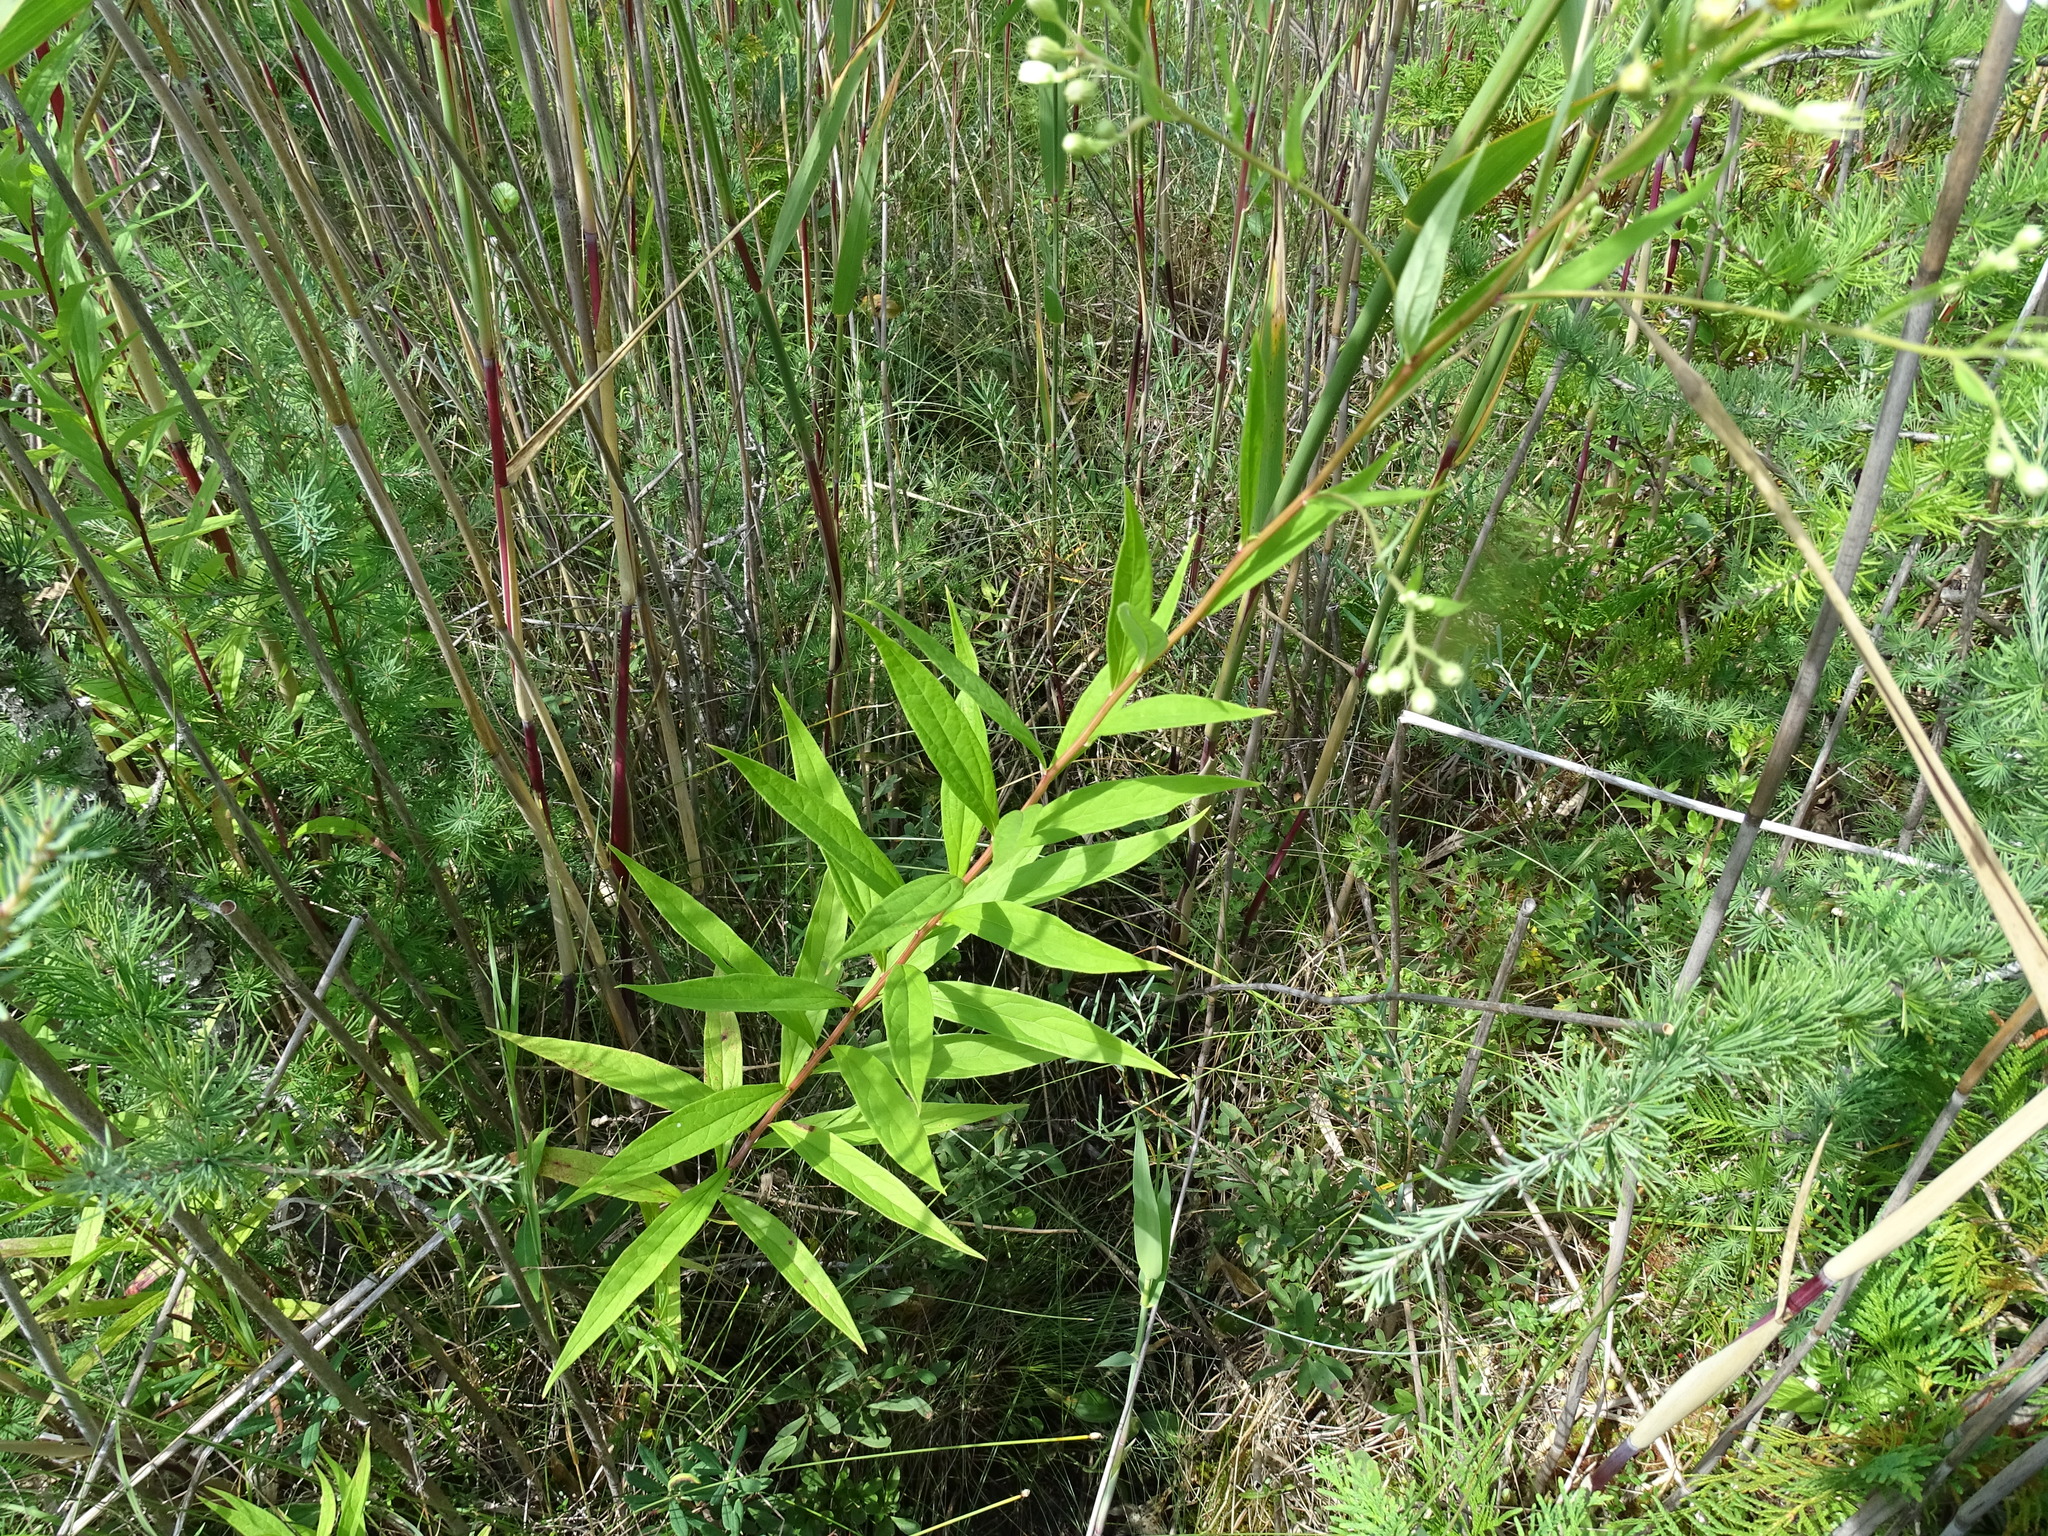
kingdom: Plantae
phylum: Tracheophyta
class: Magnoliopsida
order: Asterales
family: Asteraceae
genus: Doellingeria
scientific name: Doellingeria umbellata
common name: Flat-top white aster
